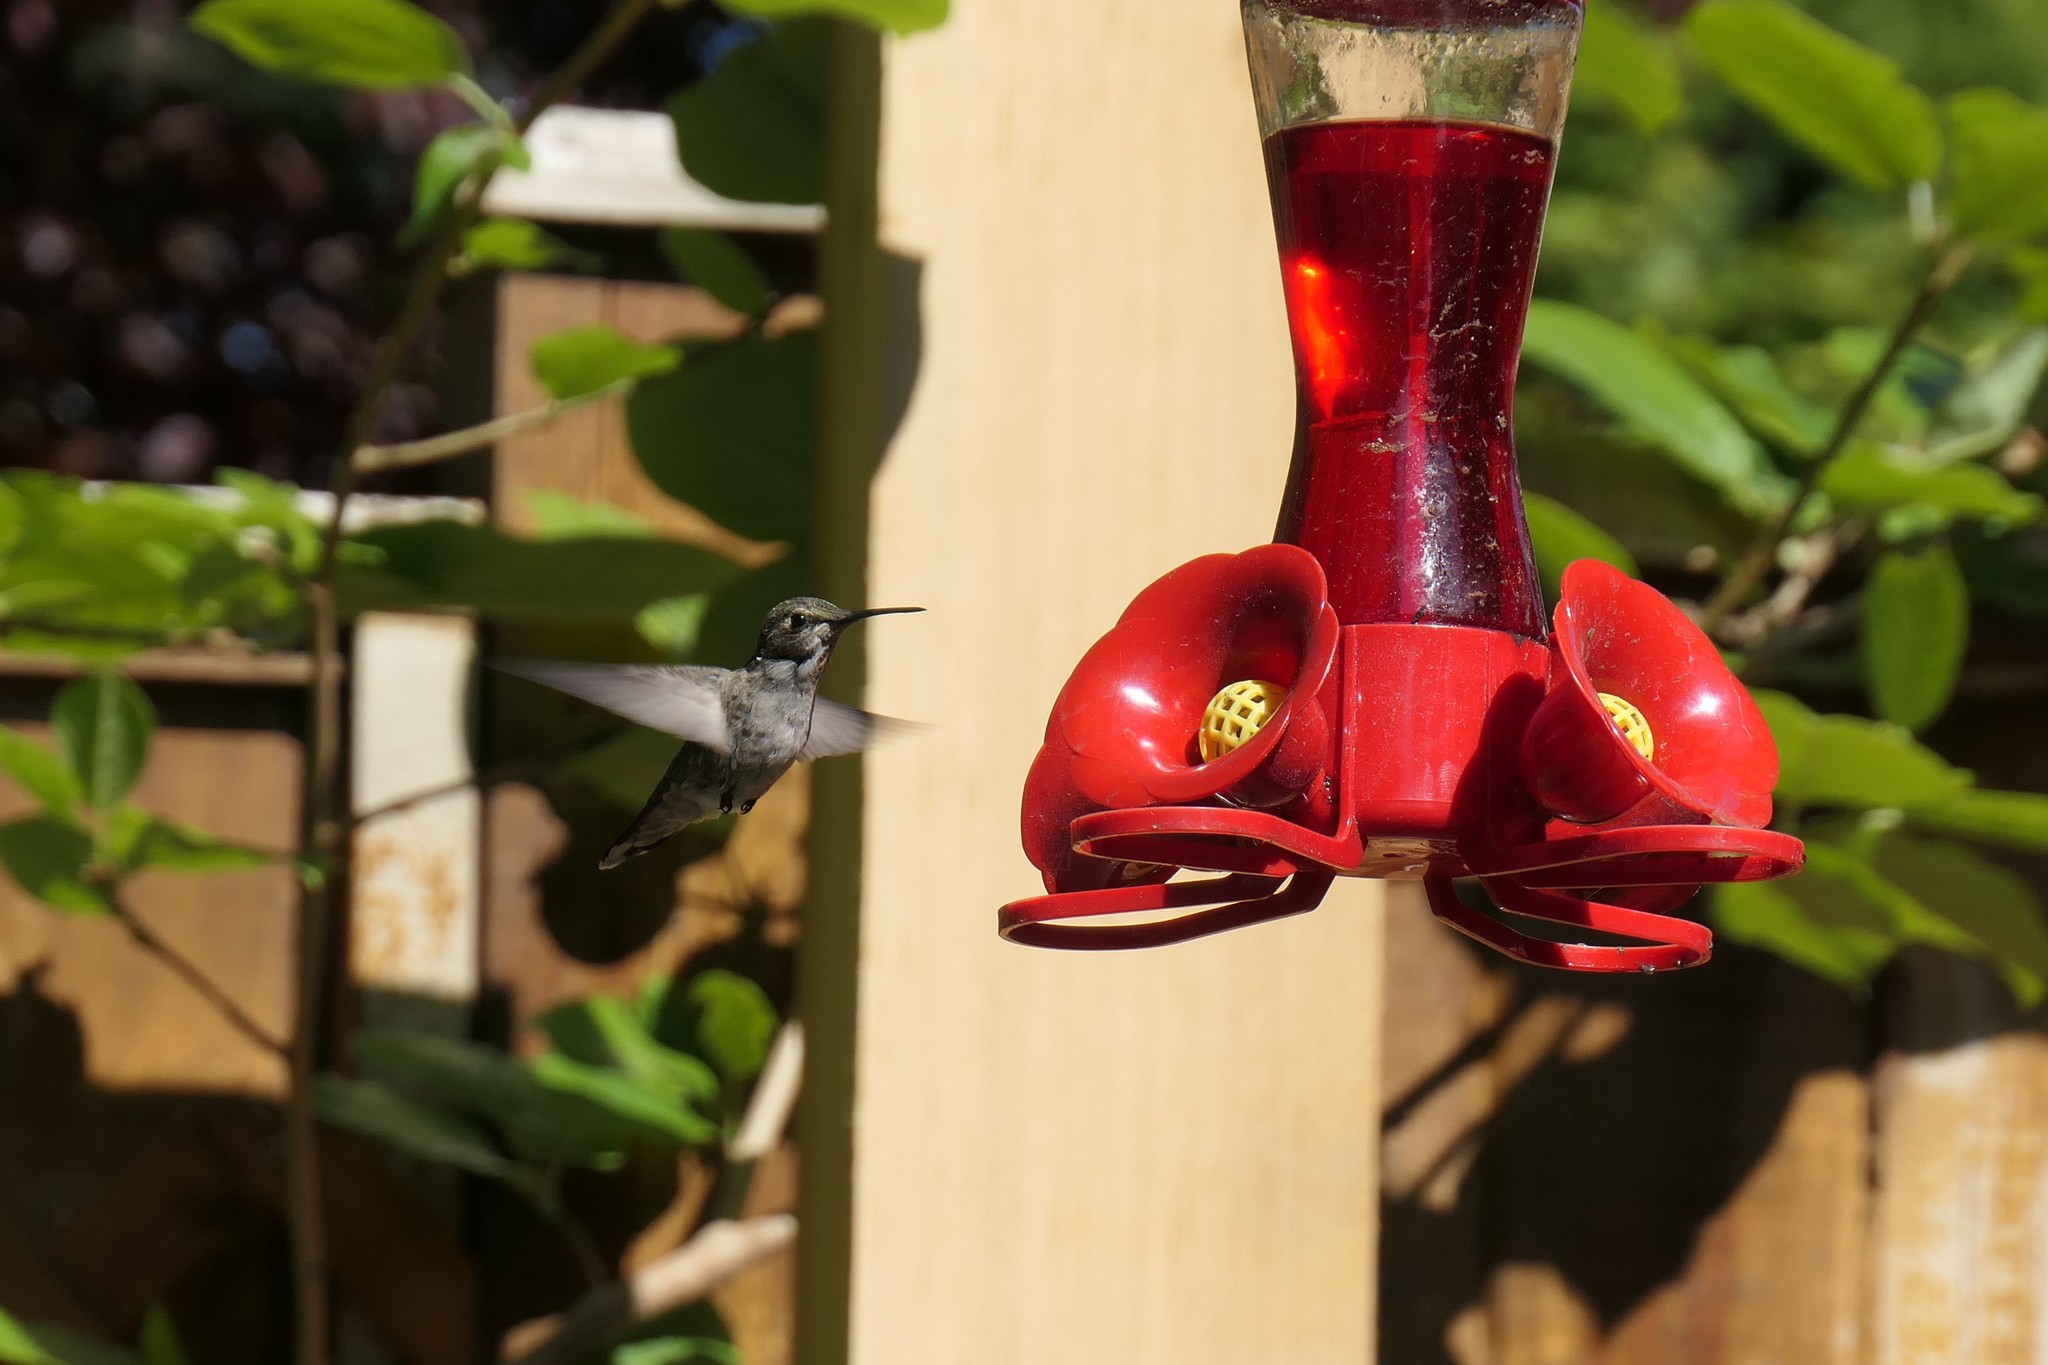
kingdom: Animalia
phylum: Chordata
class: Aves
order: Apodiformes
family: Trochilidae
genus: Calypte
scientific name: Calypte anna
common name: Anna's hummingbird
